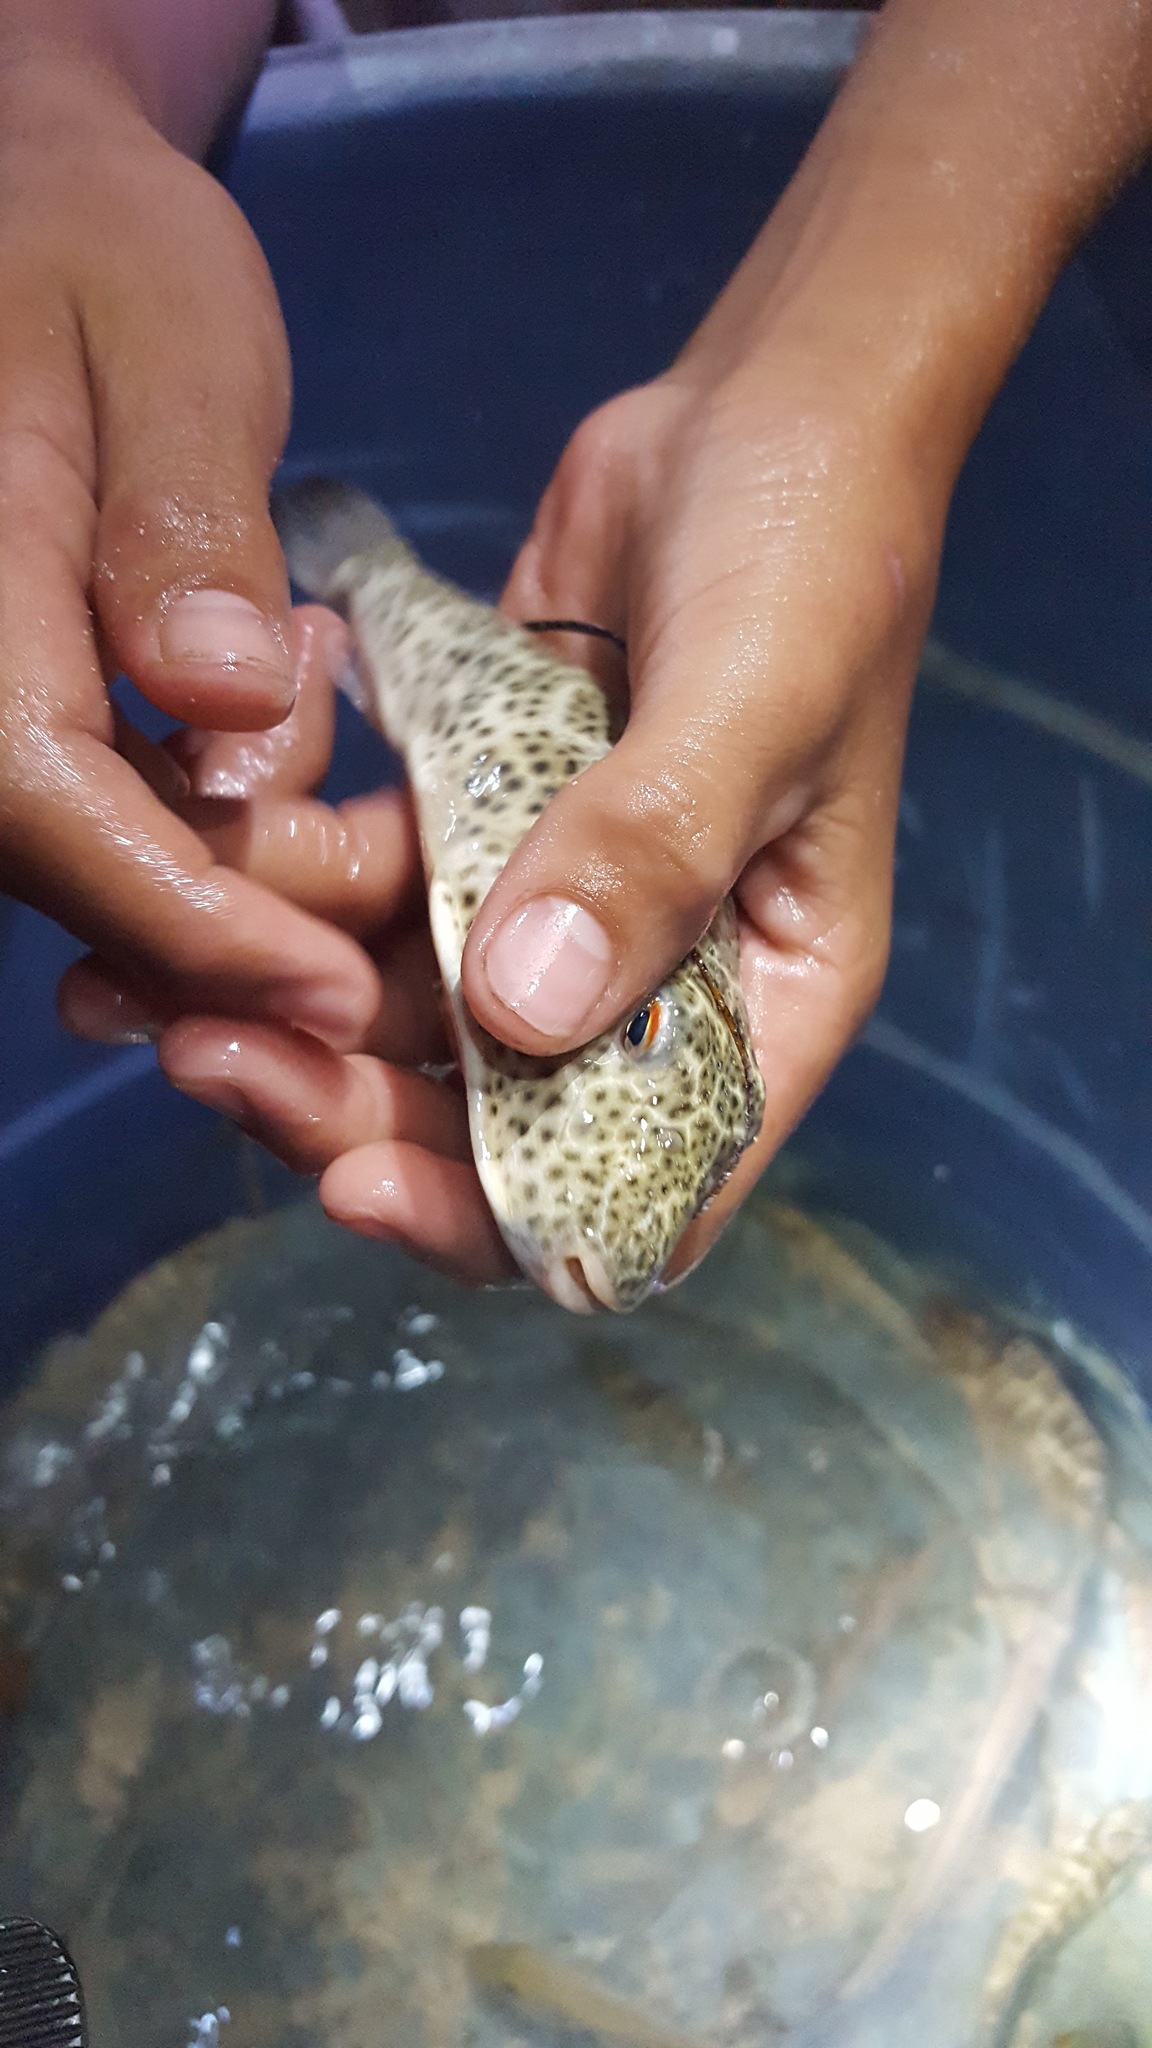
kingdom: Animalia
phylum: Chordata
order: Tetraodontiformes
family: Tetraodontidae
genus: Sphoeroides
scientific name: Sphoeroides testudineus
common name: Checkered puffer
